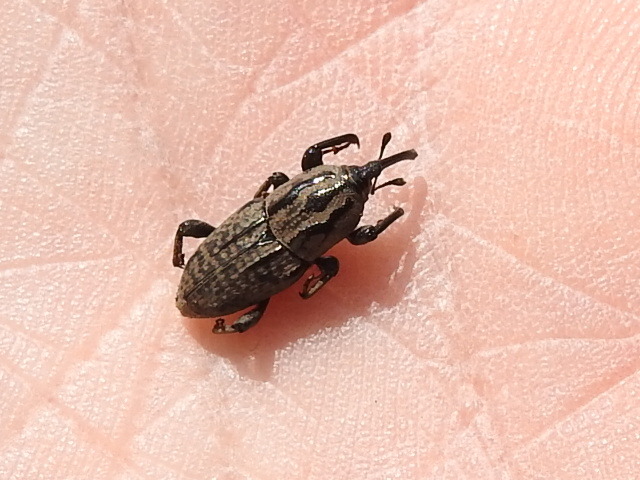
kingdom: Animalia
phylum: Arthropoda
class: Insecta
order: Coleoptera
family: Dryophthoridae
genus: Sphenophorus
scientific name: Sphenophorus cariosus
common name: Weevil
